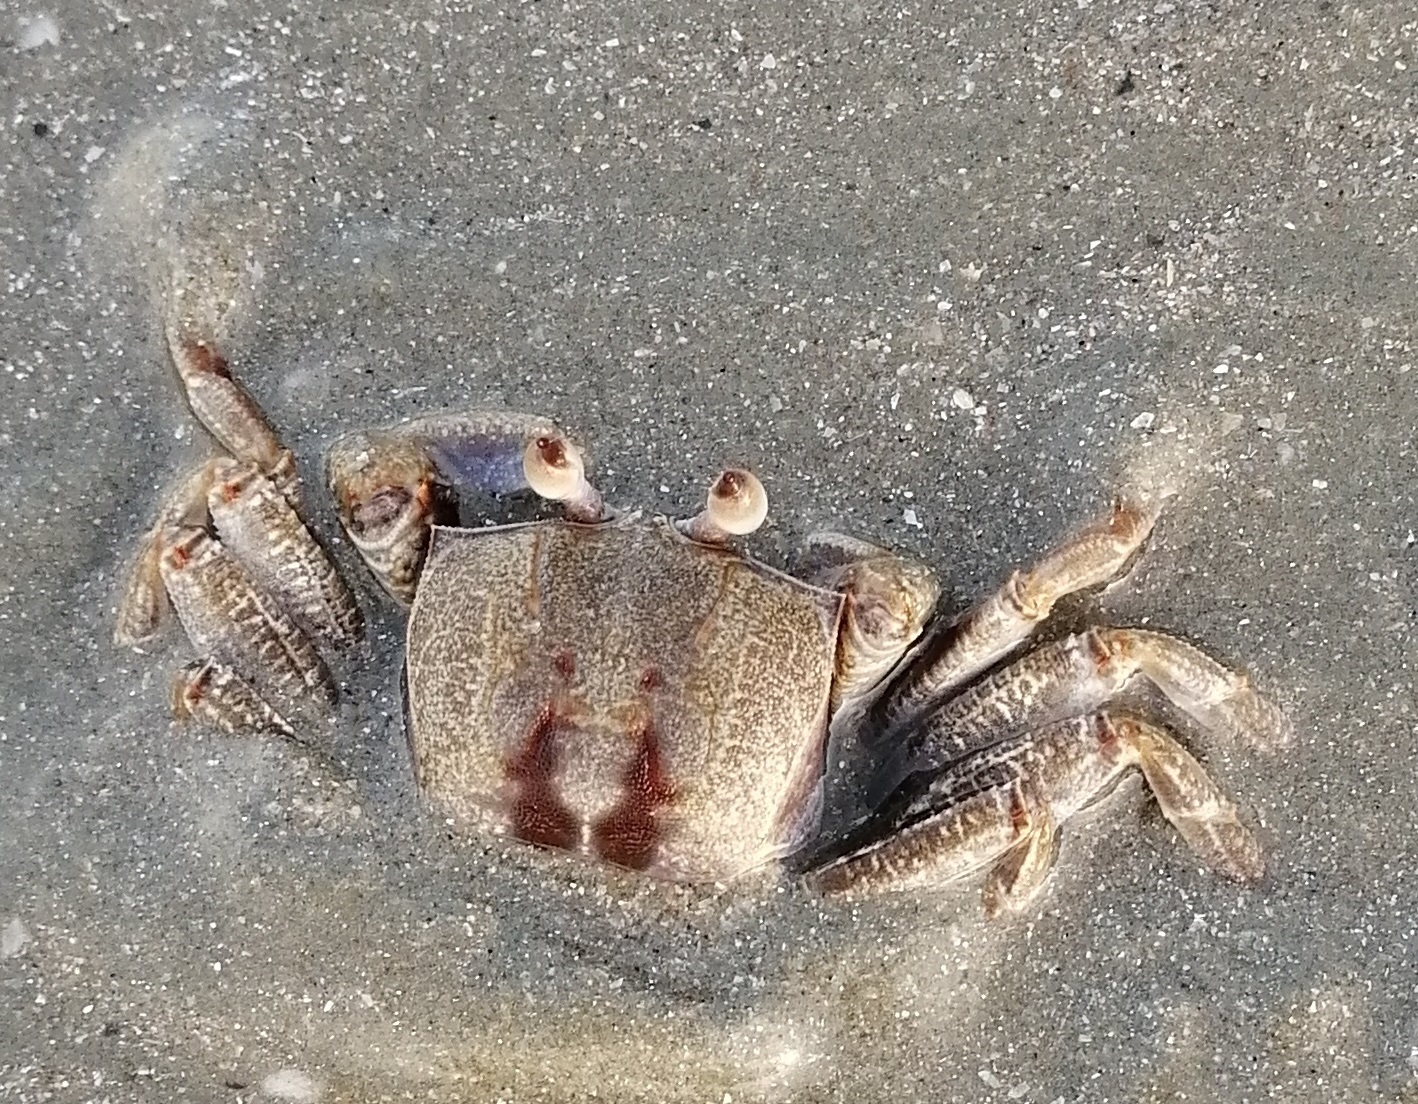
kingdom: Animalia
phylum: Arthropoda
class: Malacostraca
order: Decapoda
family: Ocypodidae
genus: Ocypode
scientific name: Ocypode ceratophthalmus
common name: Indo-pacific ghost crab
